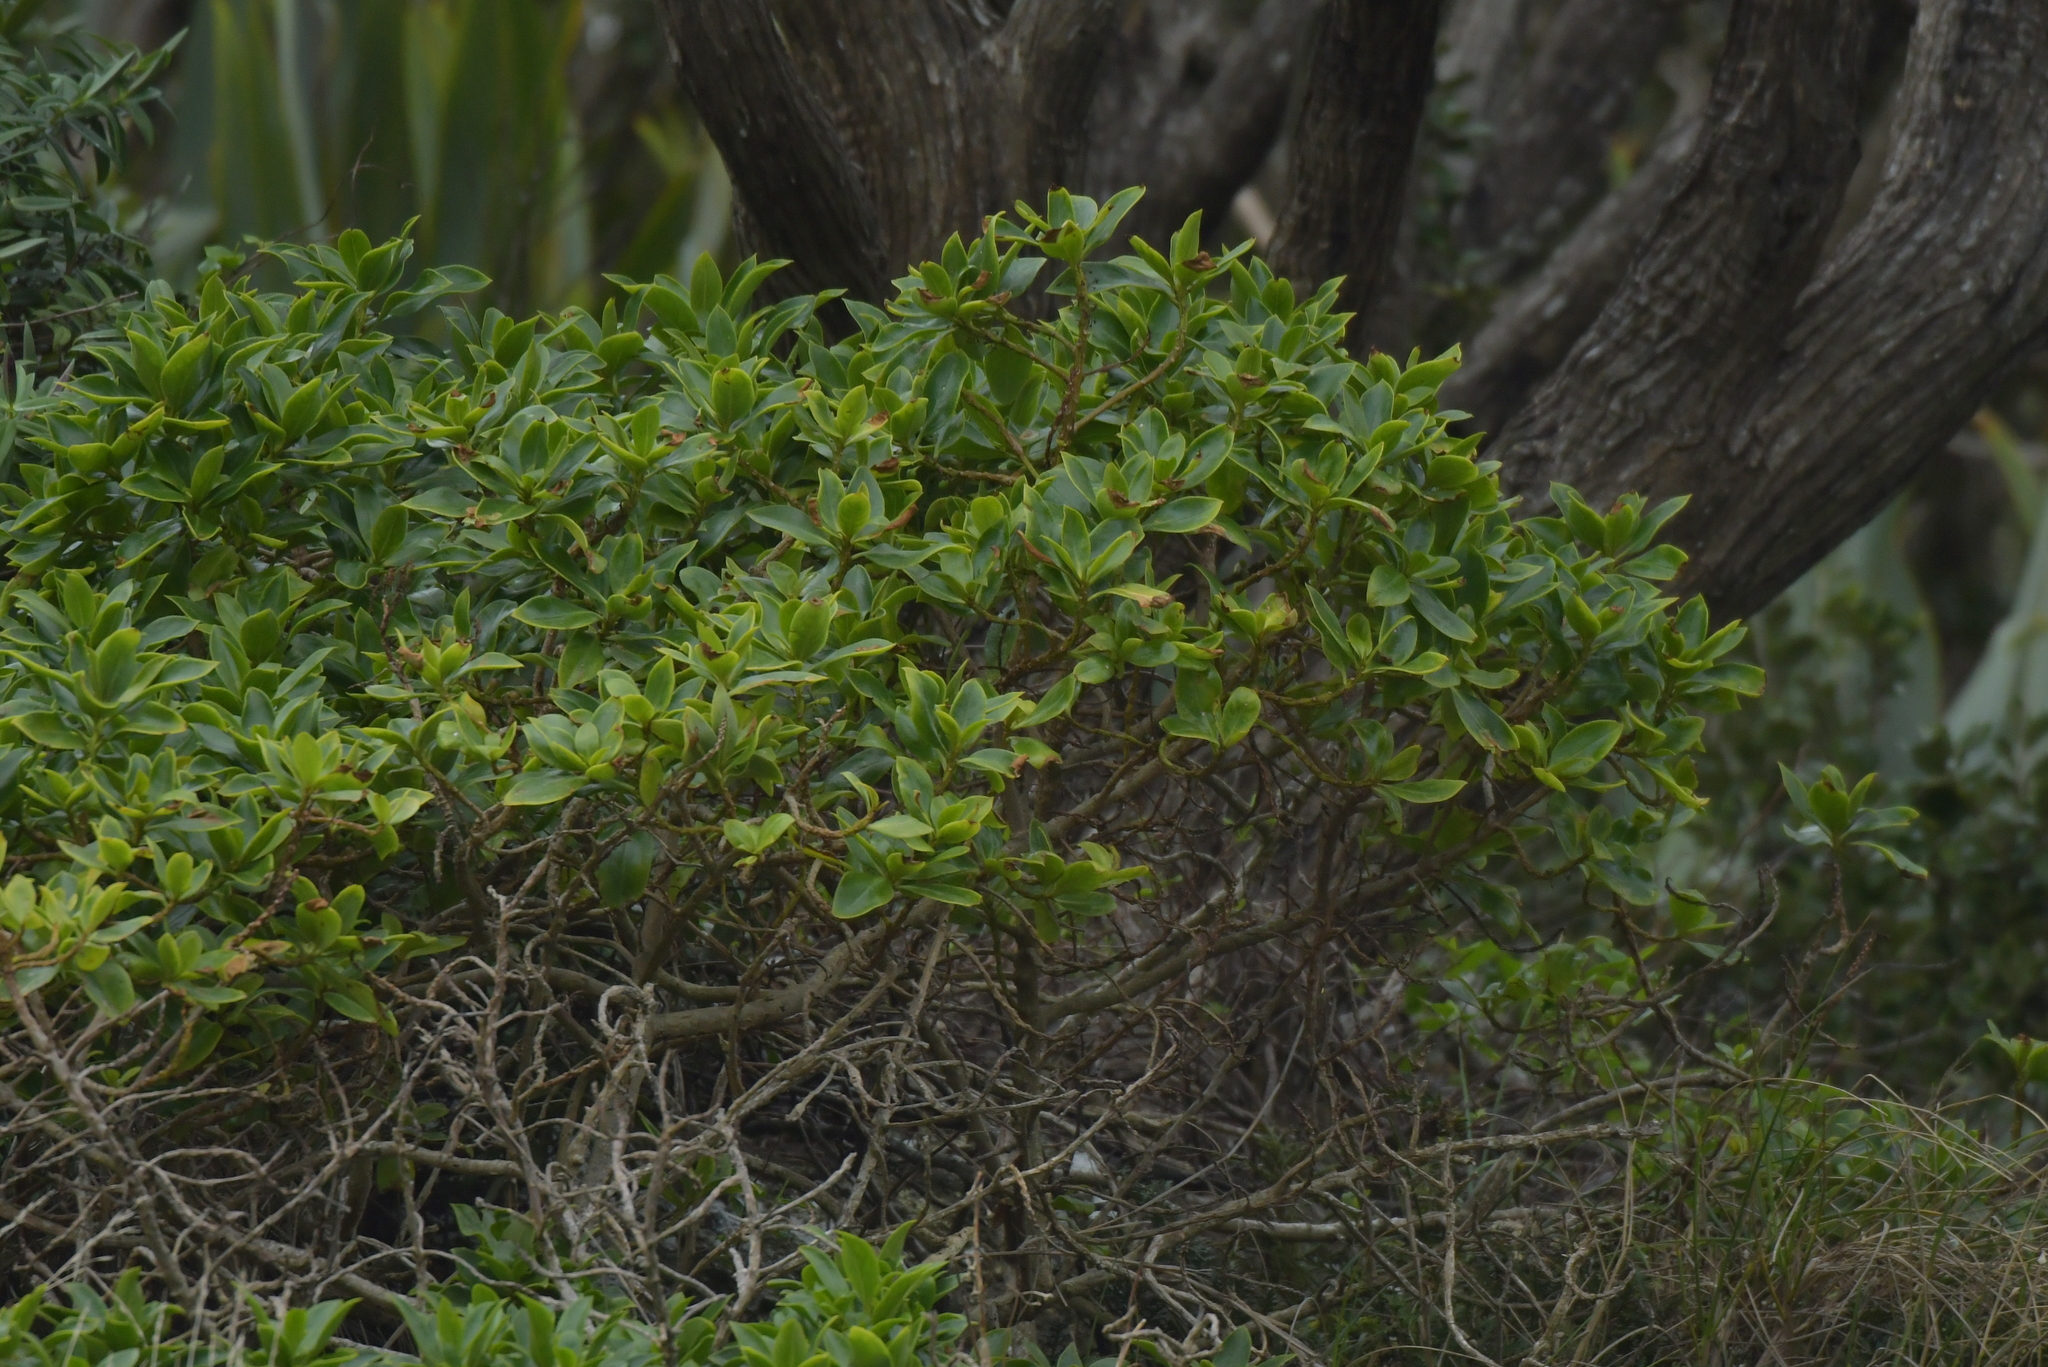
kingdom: Plantae
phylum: Tracheophyta
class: Magnoliopsida
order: Ericales
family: Primulaceae
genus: Myrsine
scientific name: Myrsine chathamica
